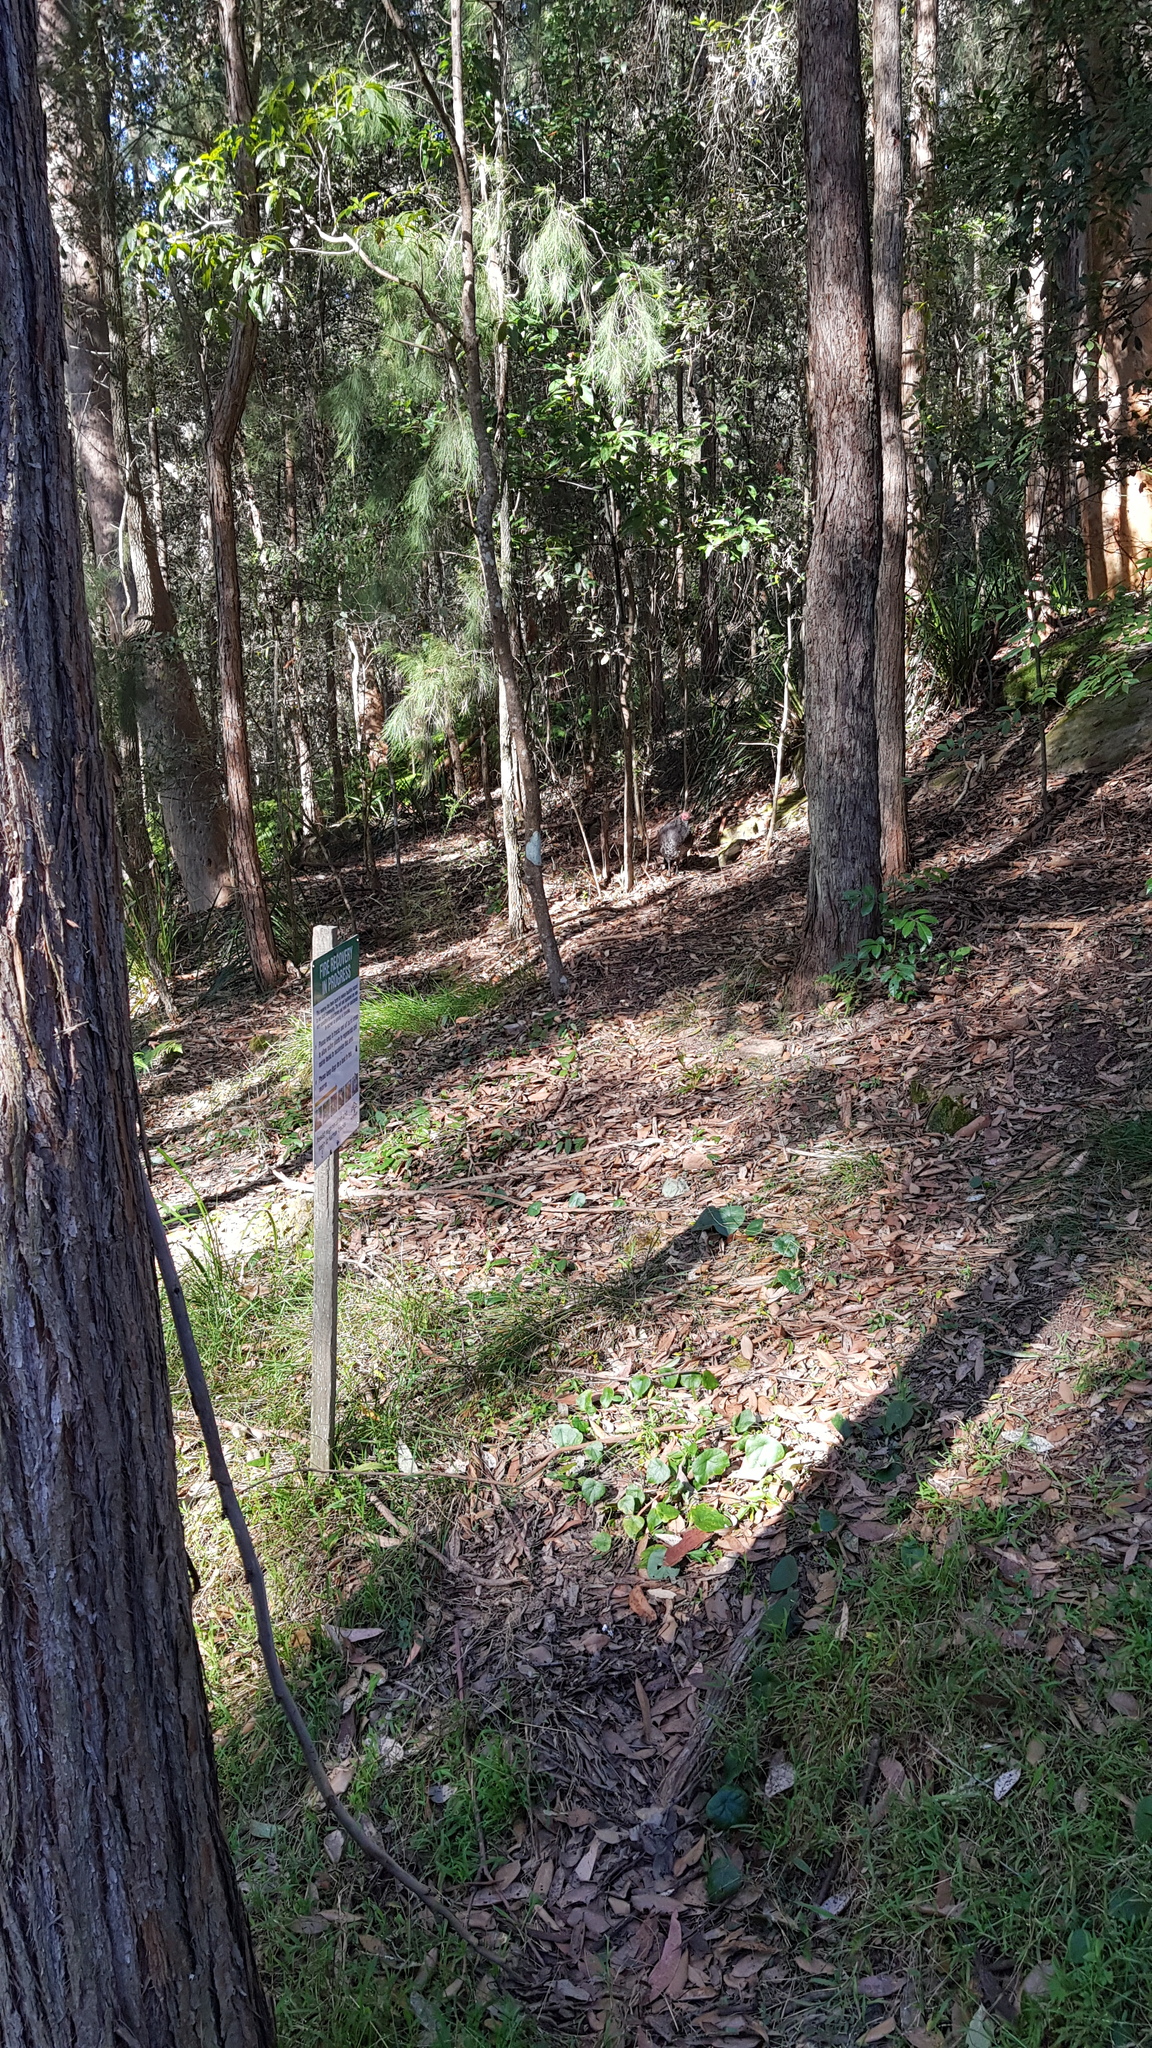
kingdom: Animalia
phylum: Chordata
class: Aves
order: Galliformes
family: Megapodiidae
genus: Alectura
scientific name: Alectura lathami
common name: Australian brushturkey
